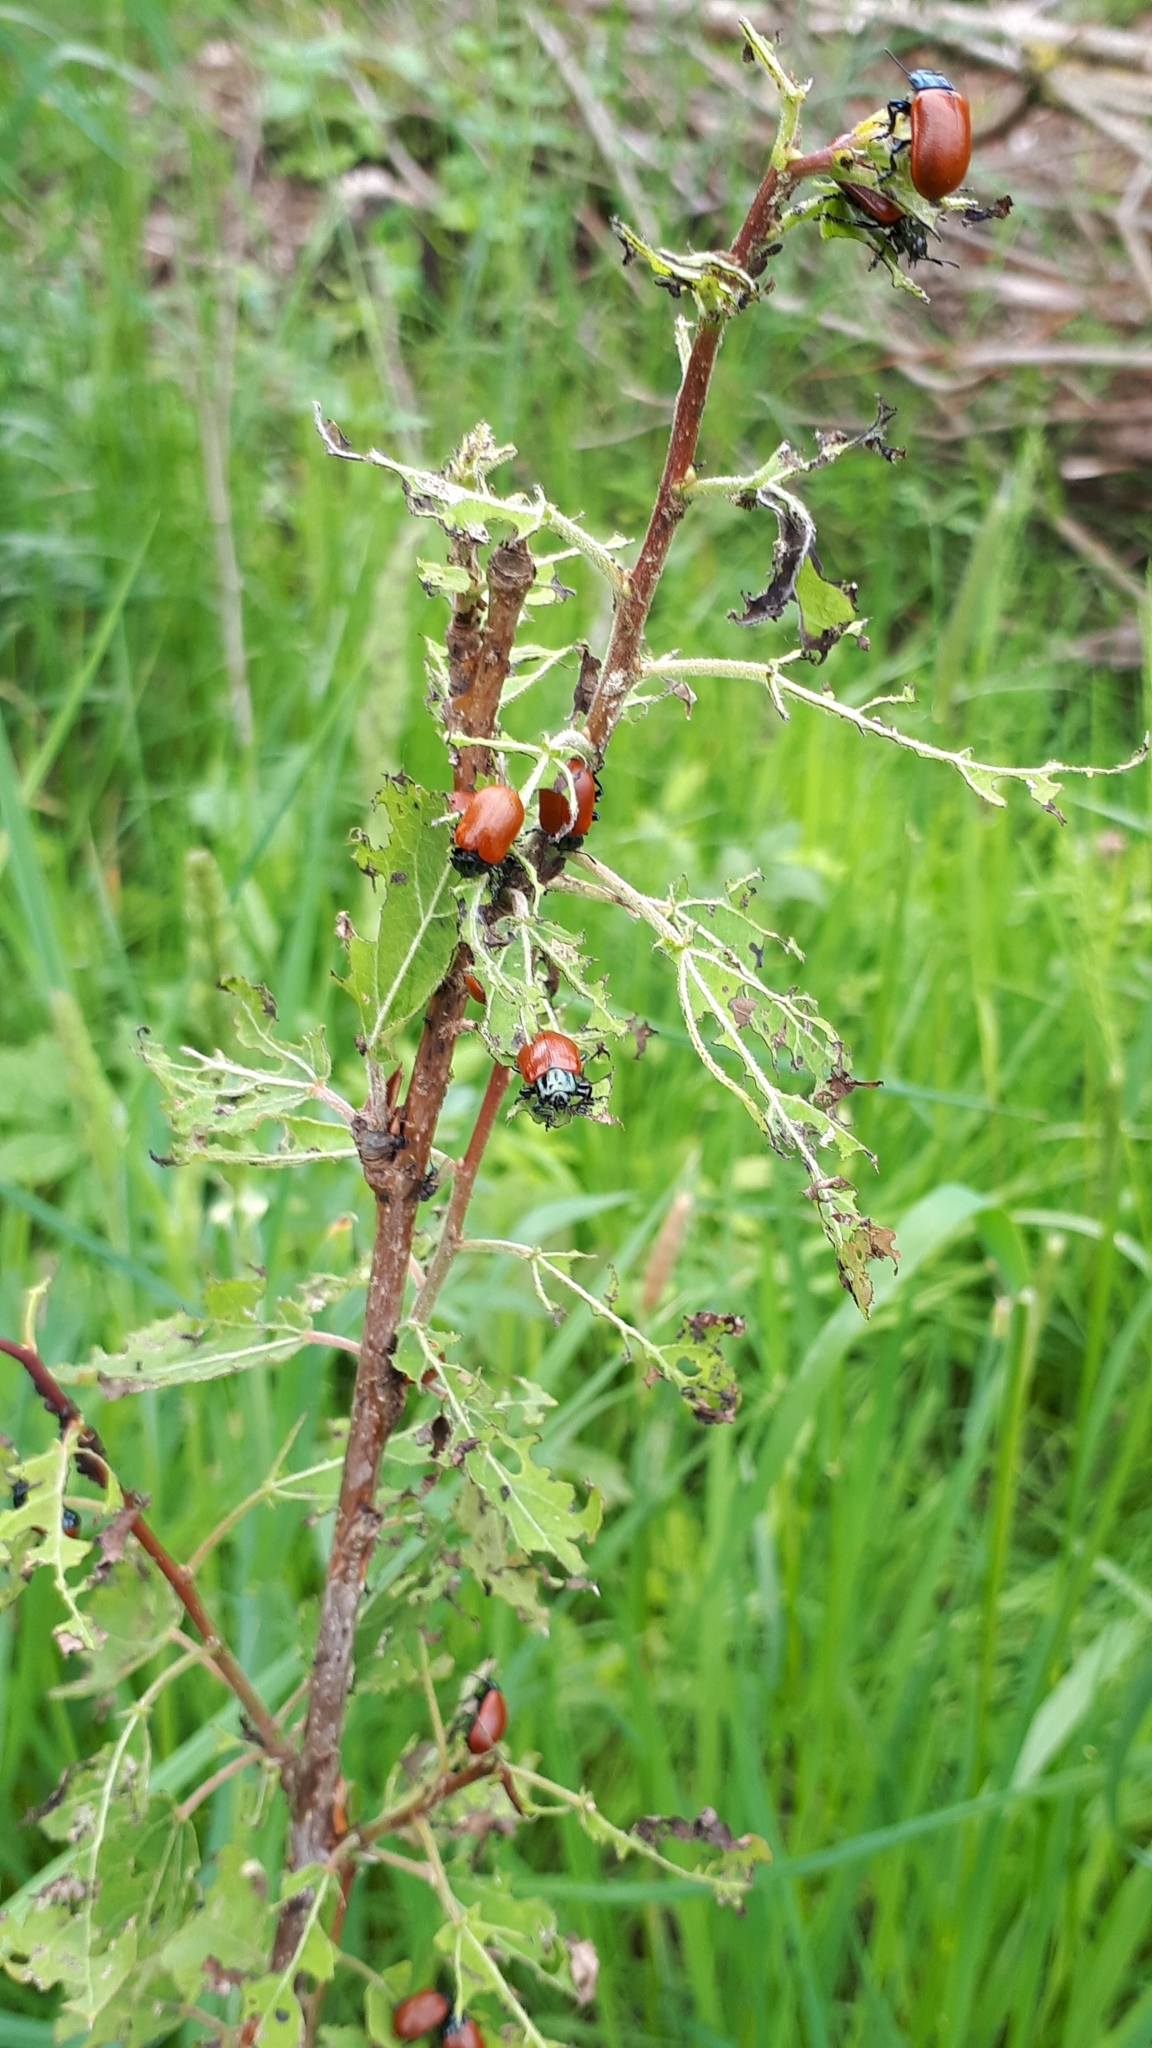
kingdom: Animalia
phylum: Arthropoda
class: Insecta
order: Coleoptera
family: Chrysomelidae
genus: Chrysomela
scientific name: Chrysomela populi
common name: Red poplar leaf beetle
